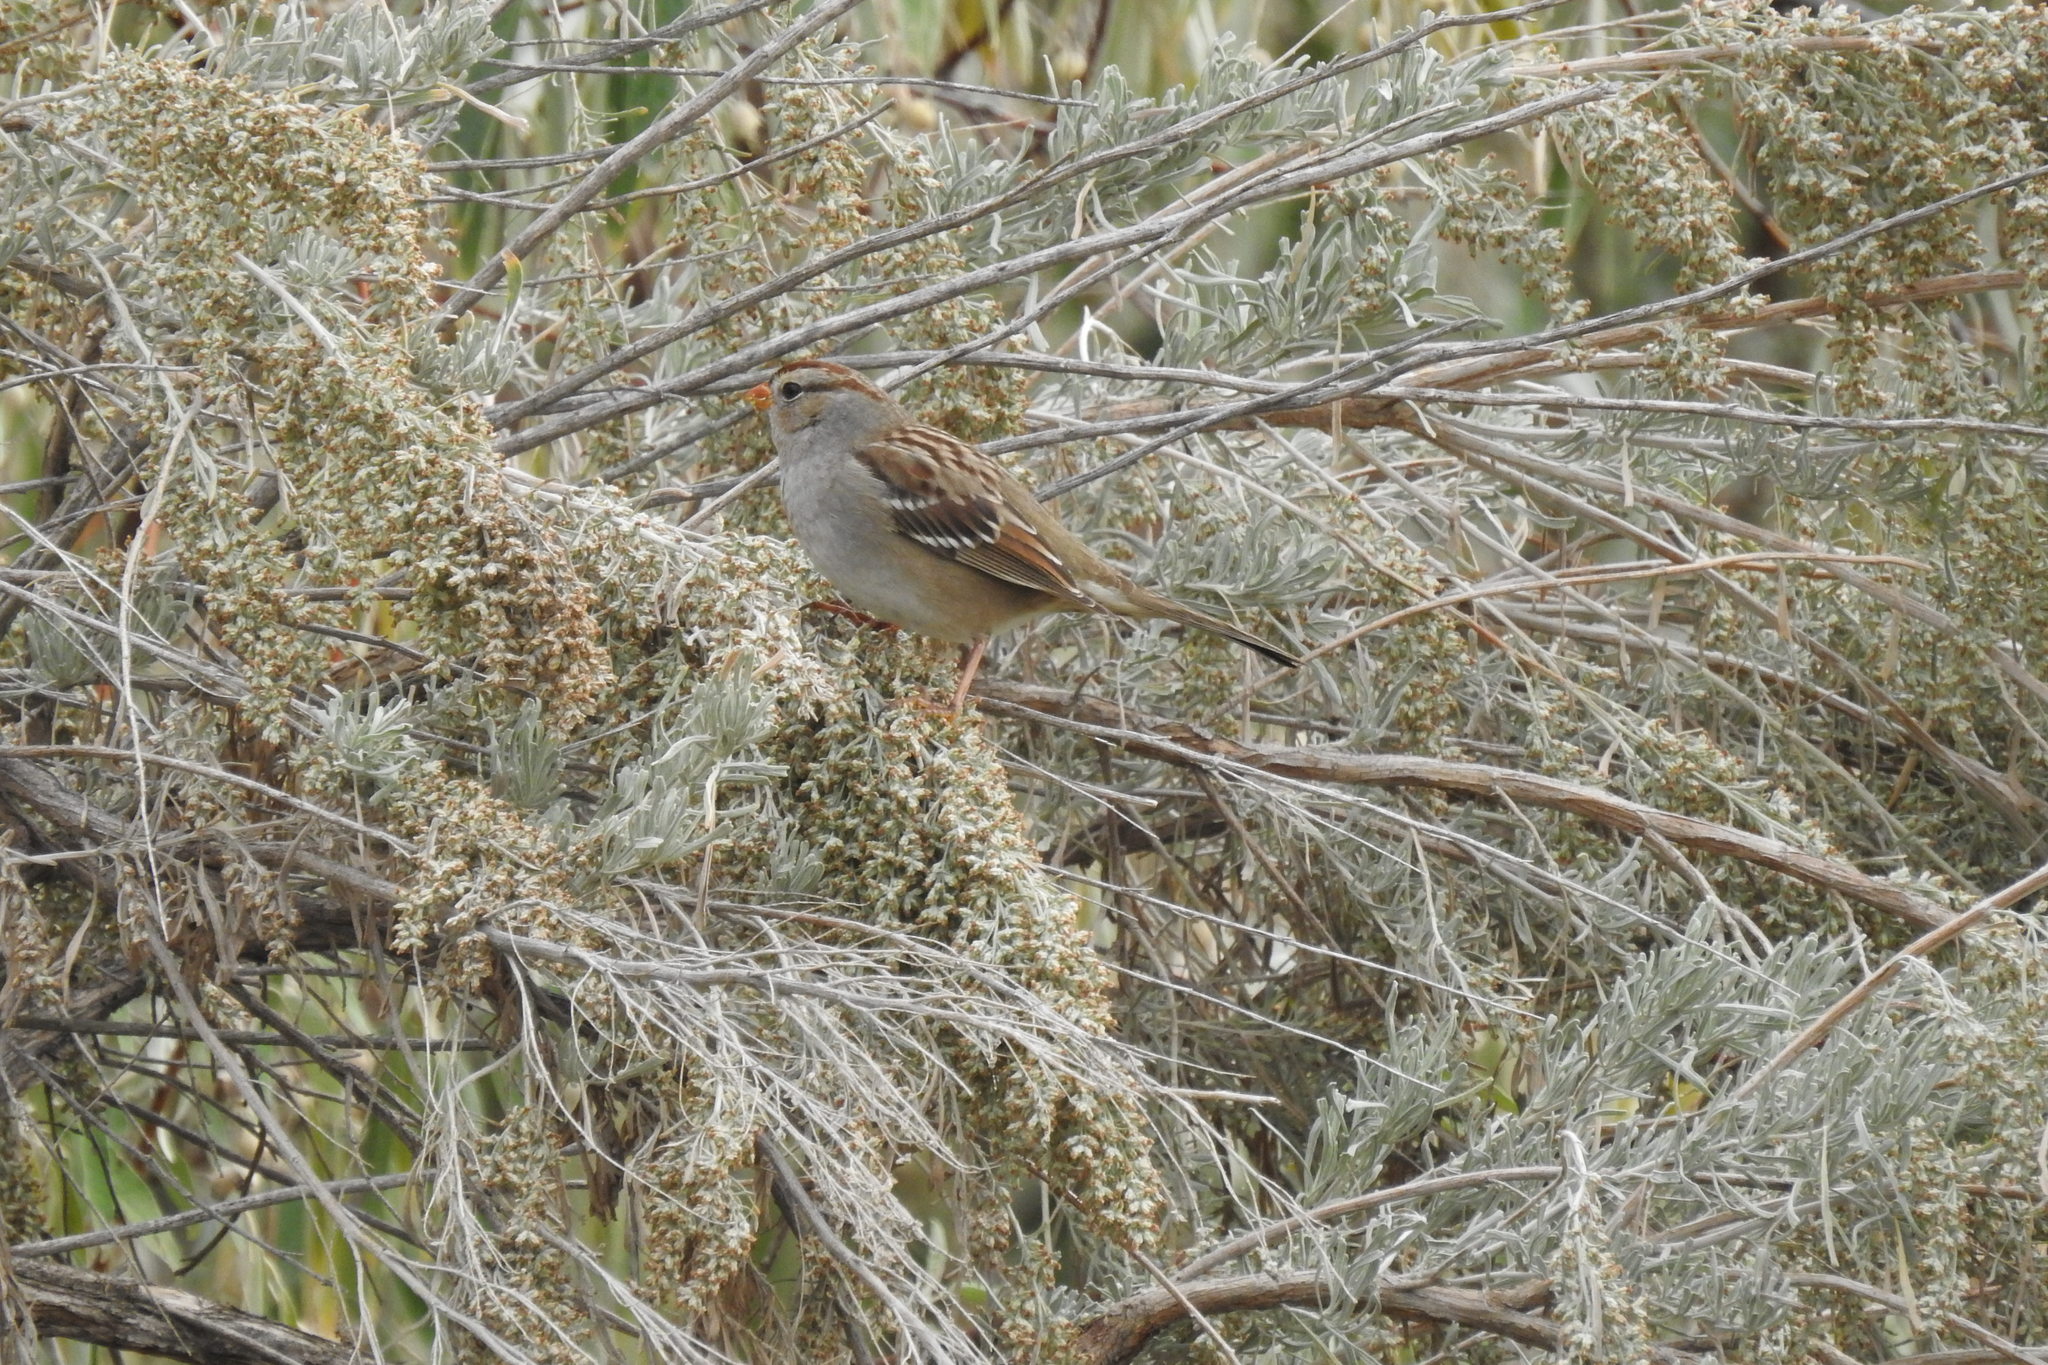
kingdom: Animalia
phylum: Chordata
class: Aves
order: Passeriformes
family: Passerellidae
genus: Zonotrichia
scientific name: Zonotrichia leucophrys
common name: White-crowned sparrow
